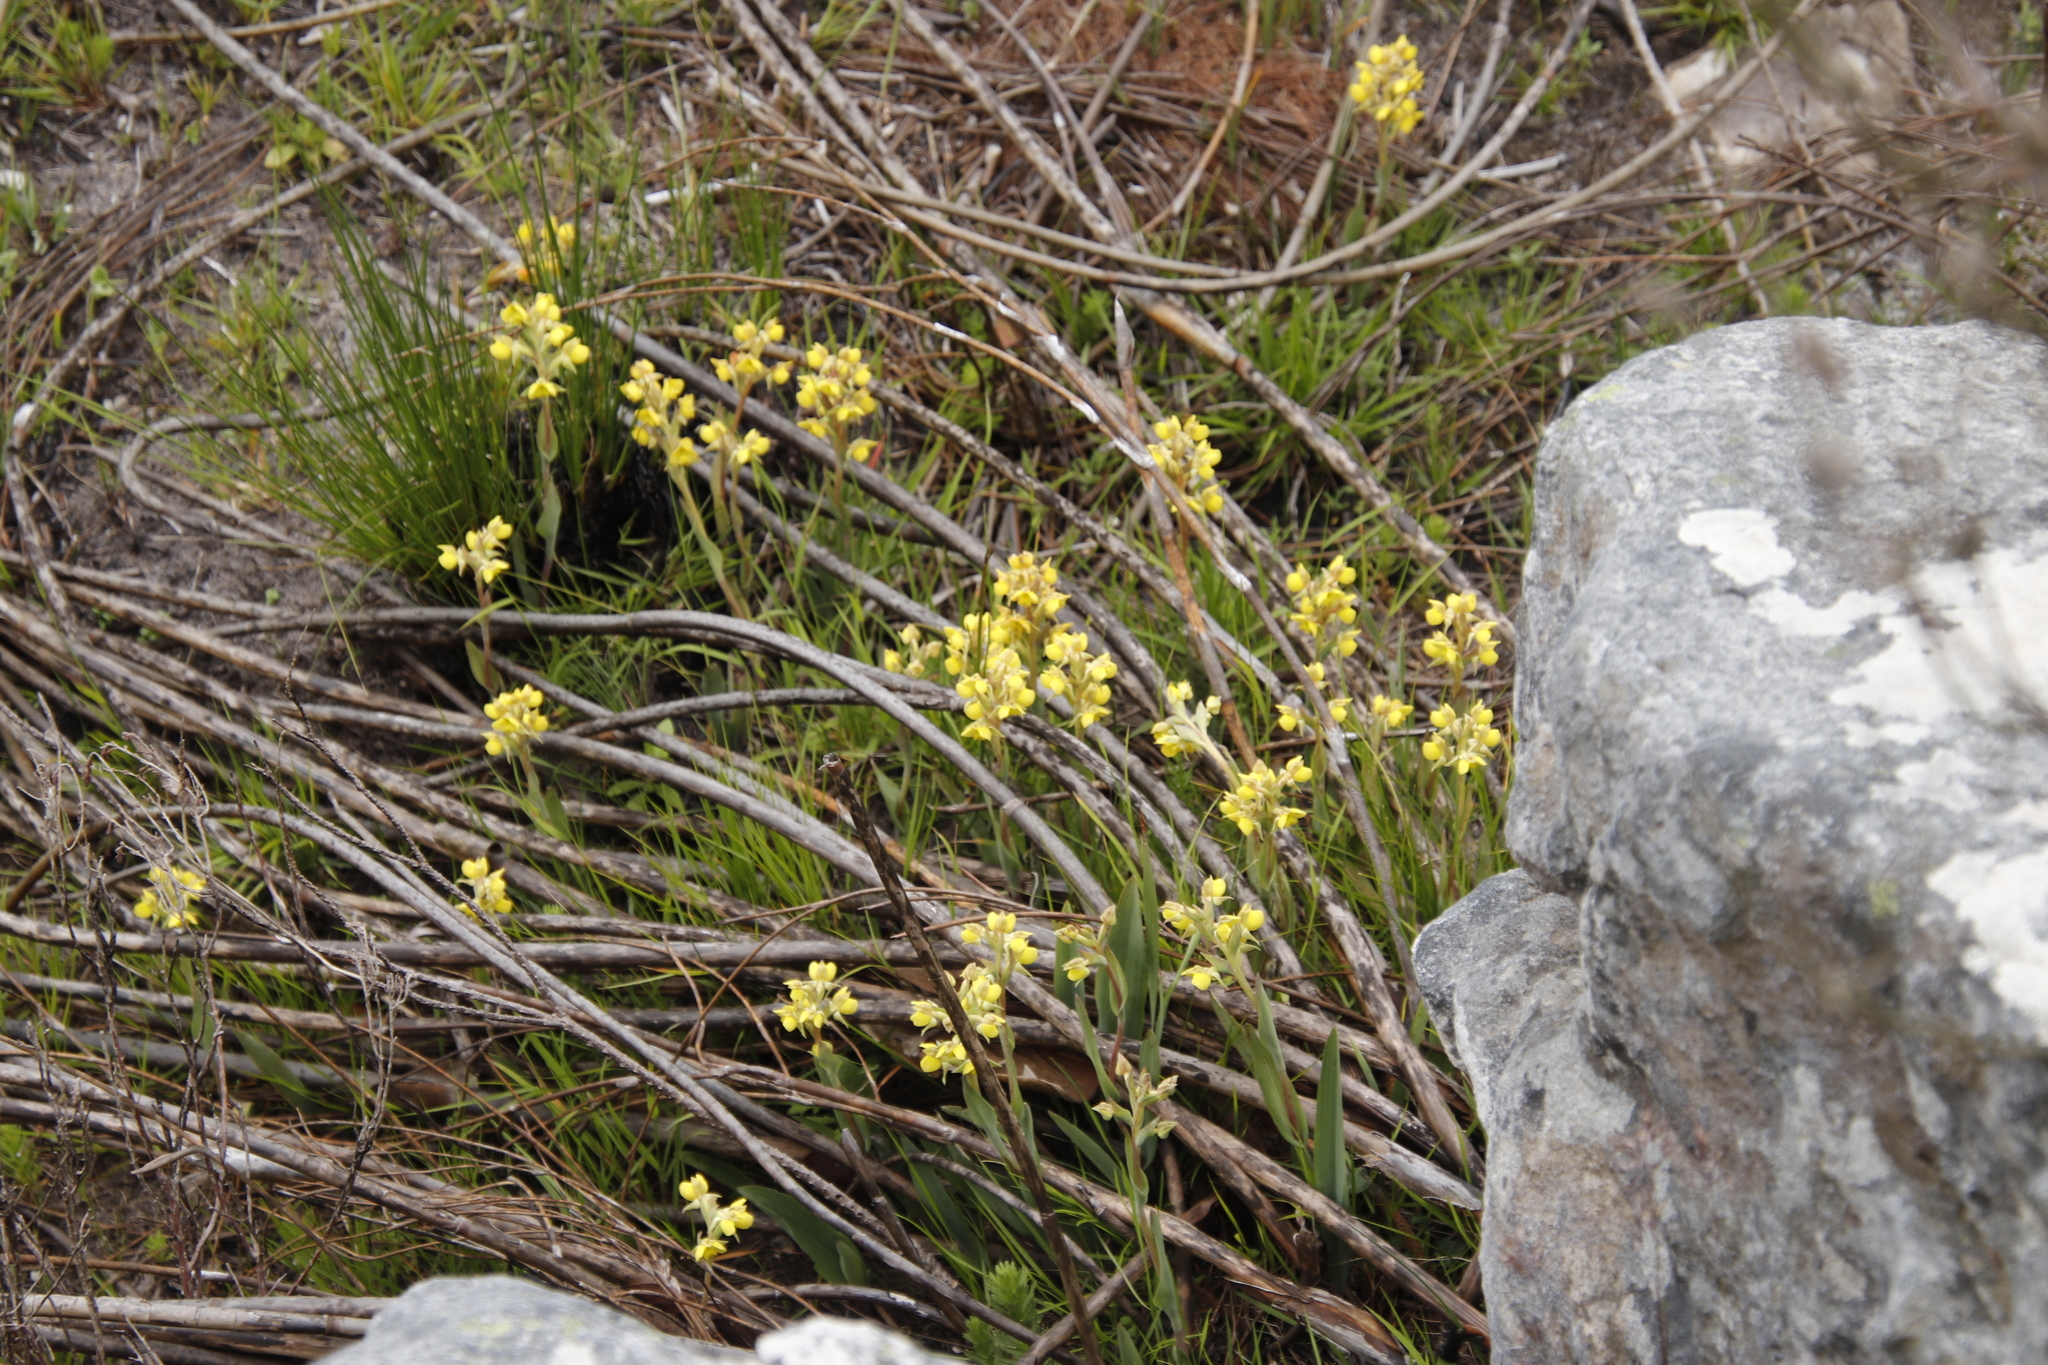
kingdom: Plantae
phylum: Tracheophyta
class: Liliopsida
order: Asparagales
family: Orchidaceae
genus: Pterygodium
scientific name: Pterygodium acutifolium
